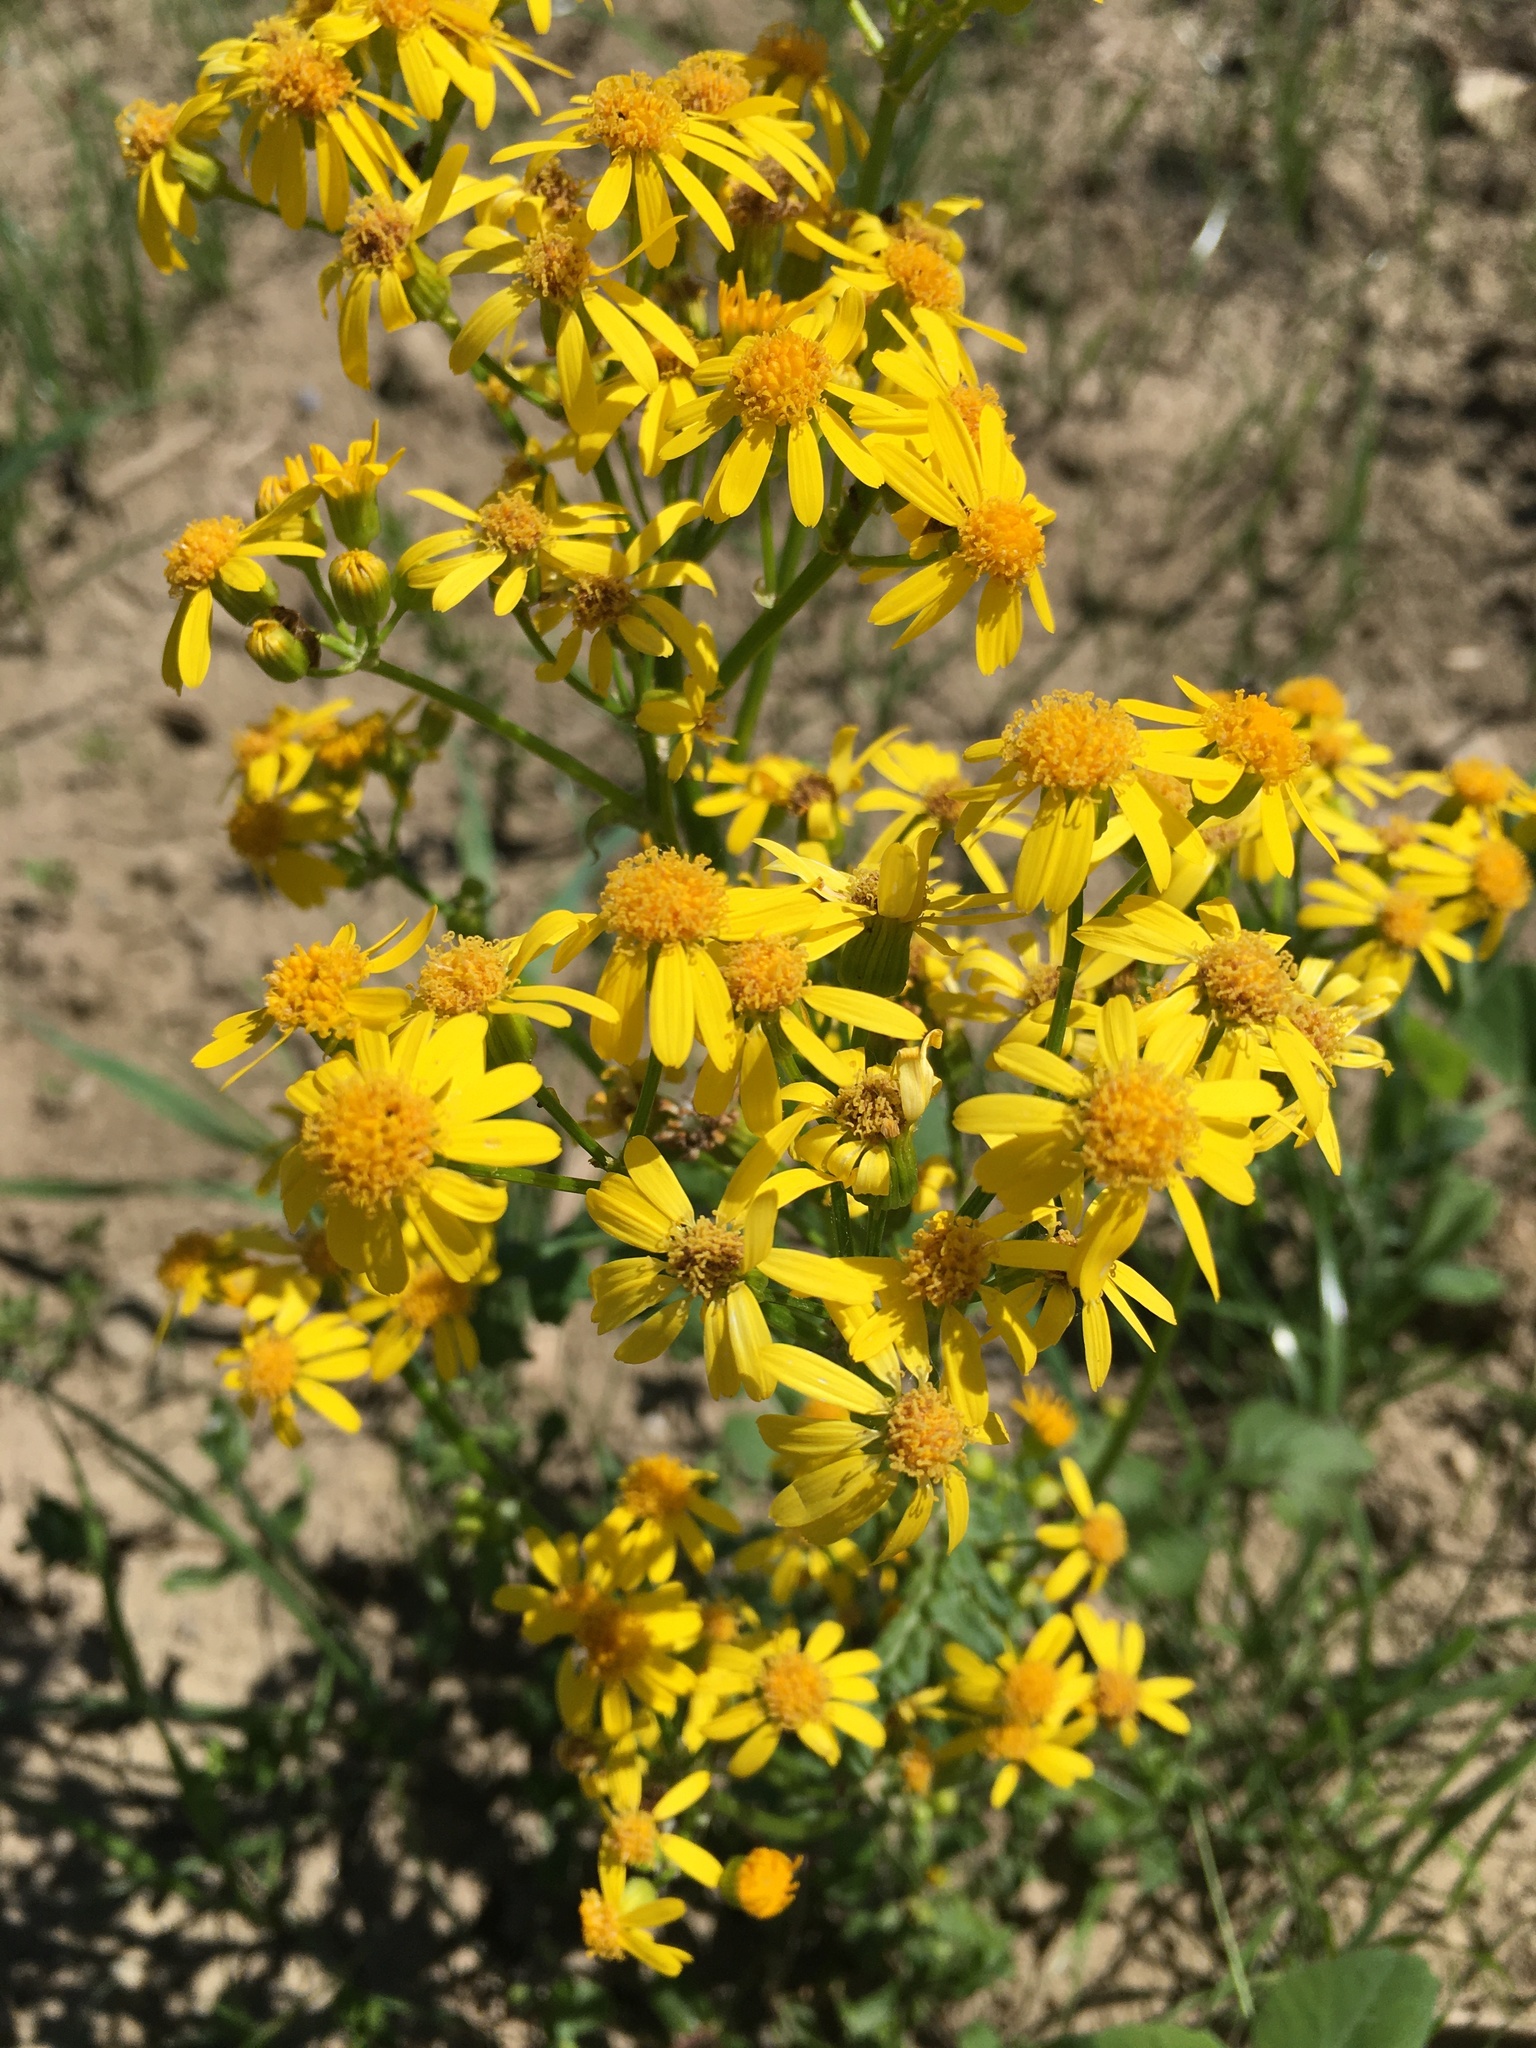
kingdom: Plantae
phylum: Tracheophyta
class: Magnoliopsida
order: Asterales
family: Asteraceae
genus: Packera
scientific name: Packera glabella
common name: Butterweed
